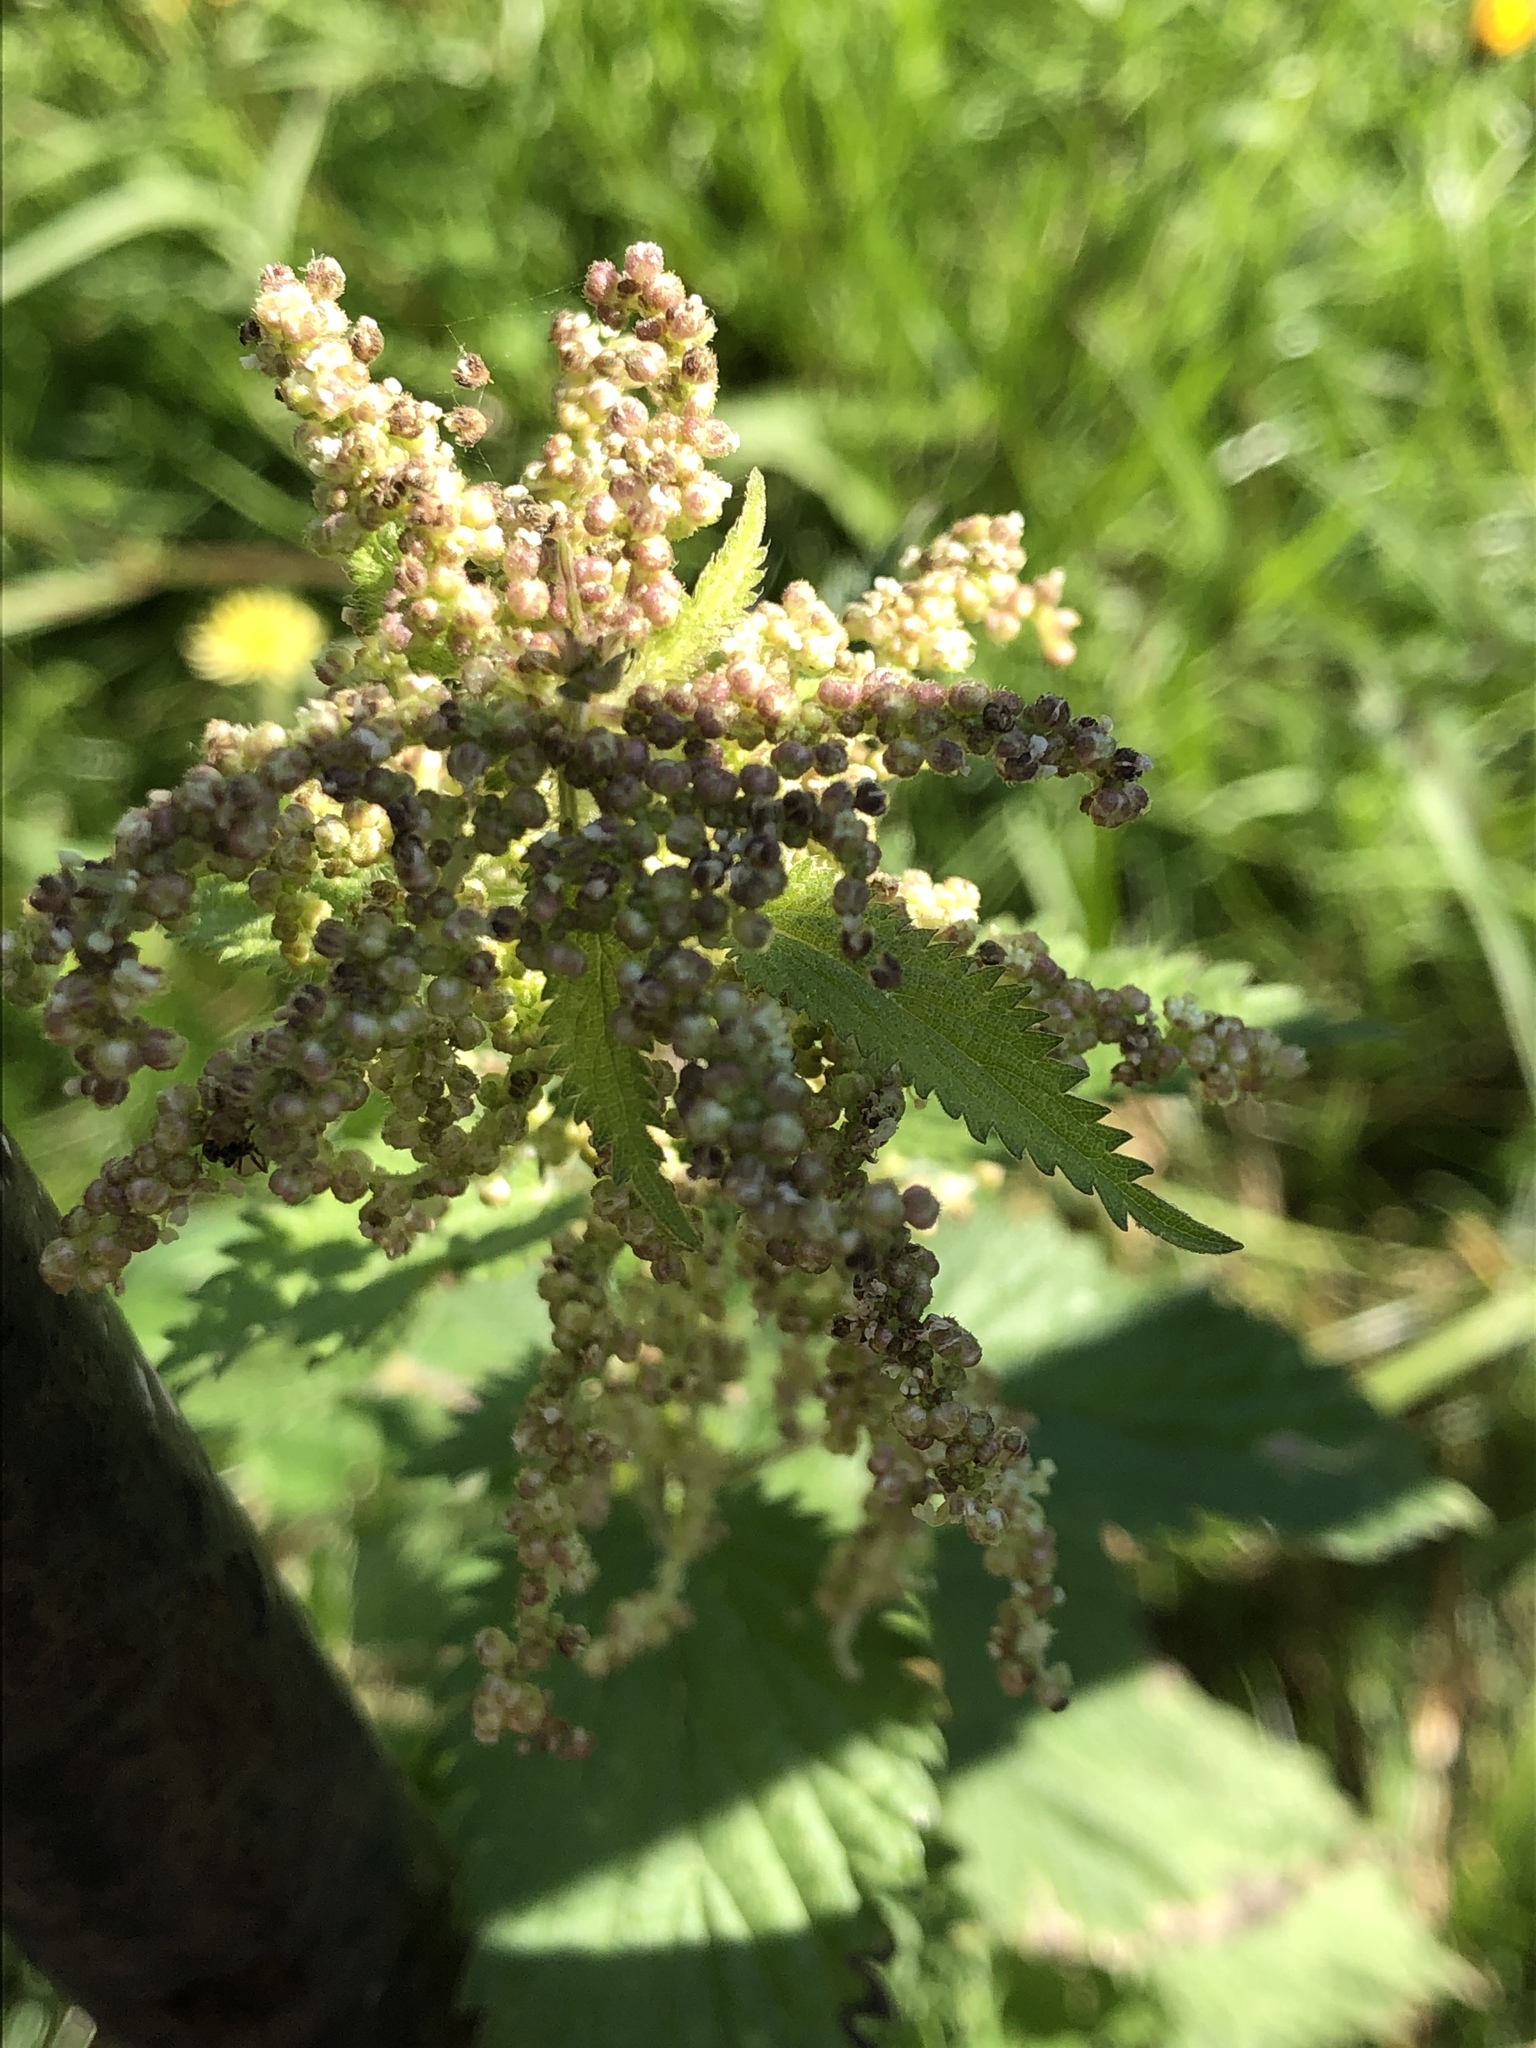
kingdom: Plantae
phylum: Tracheophyta
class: Magnoliopsida
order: Rosales
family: Urticaceae
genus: Urtica
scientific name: Urtica dioica
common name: Common nettle
